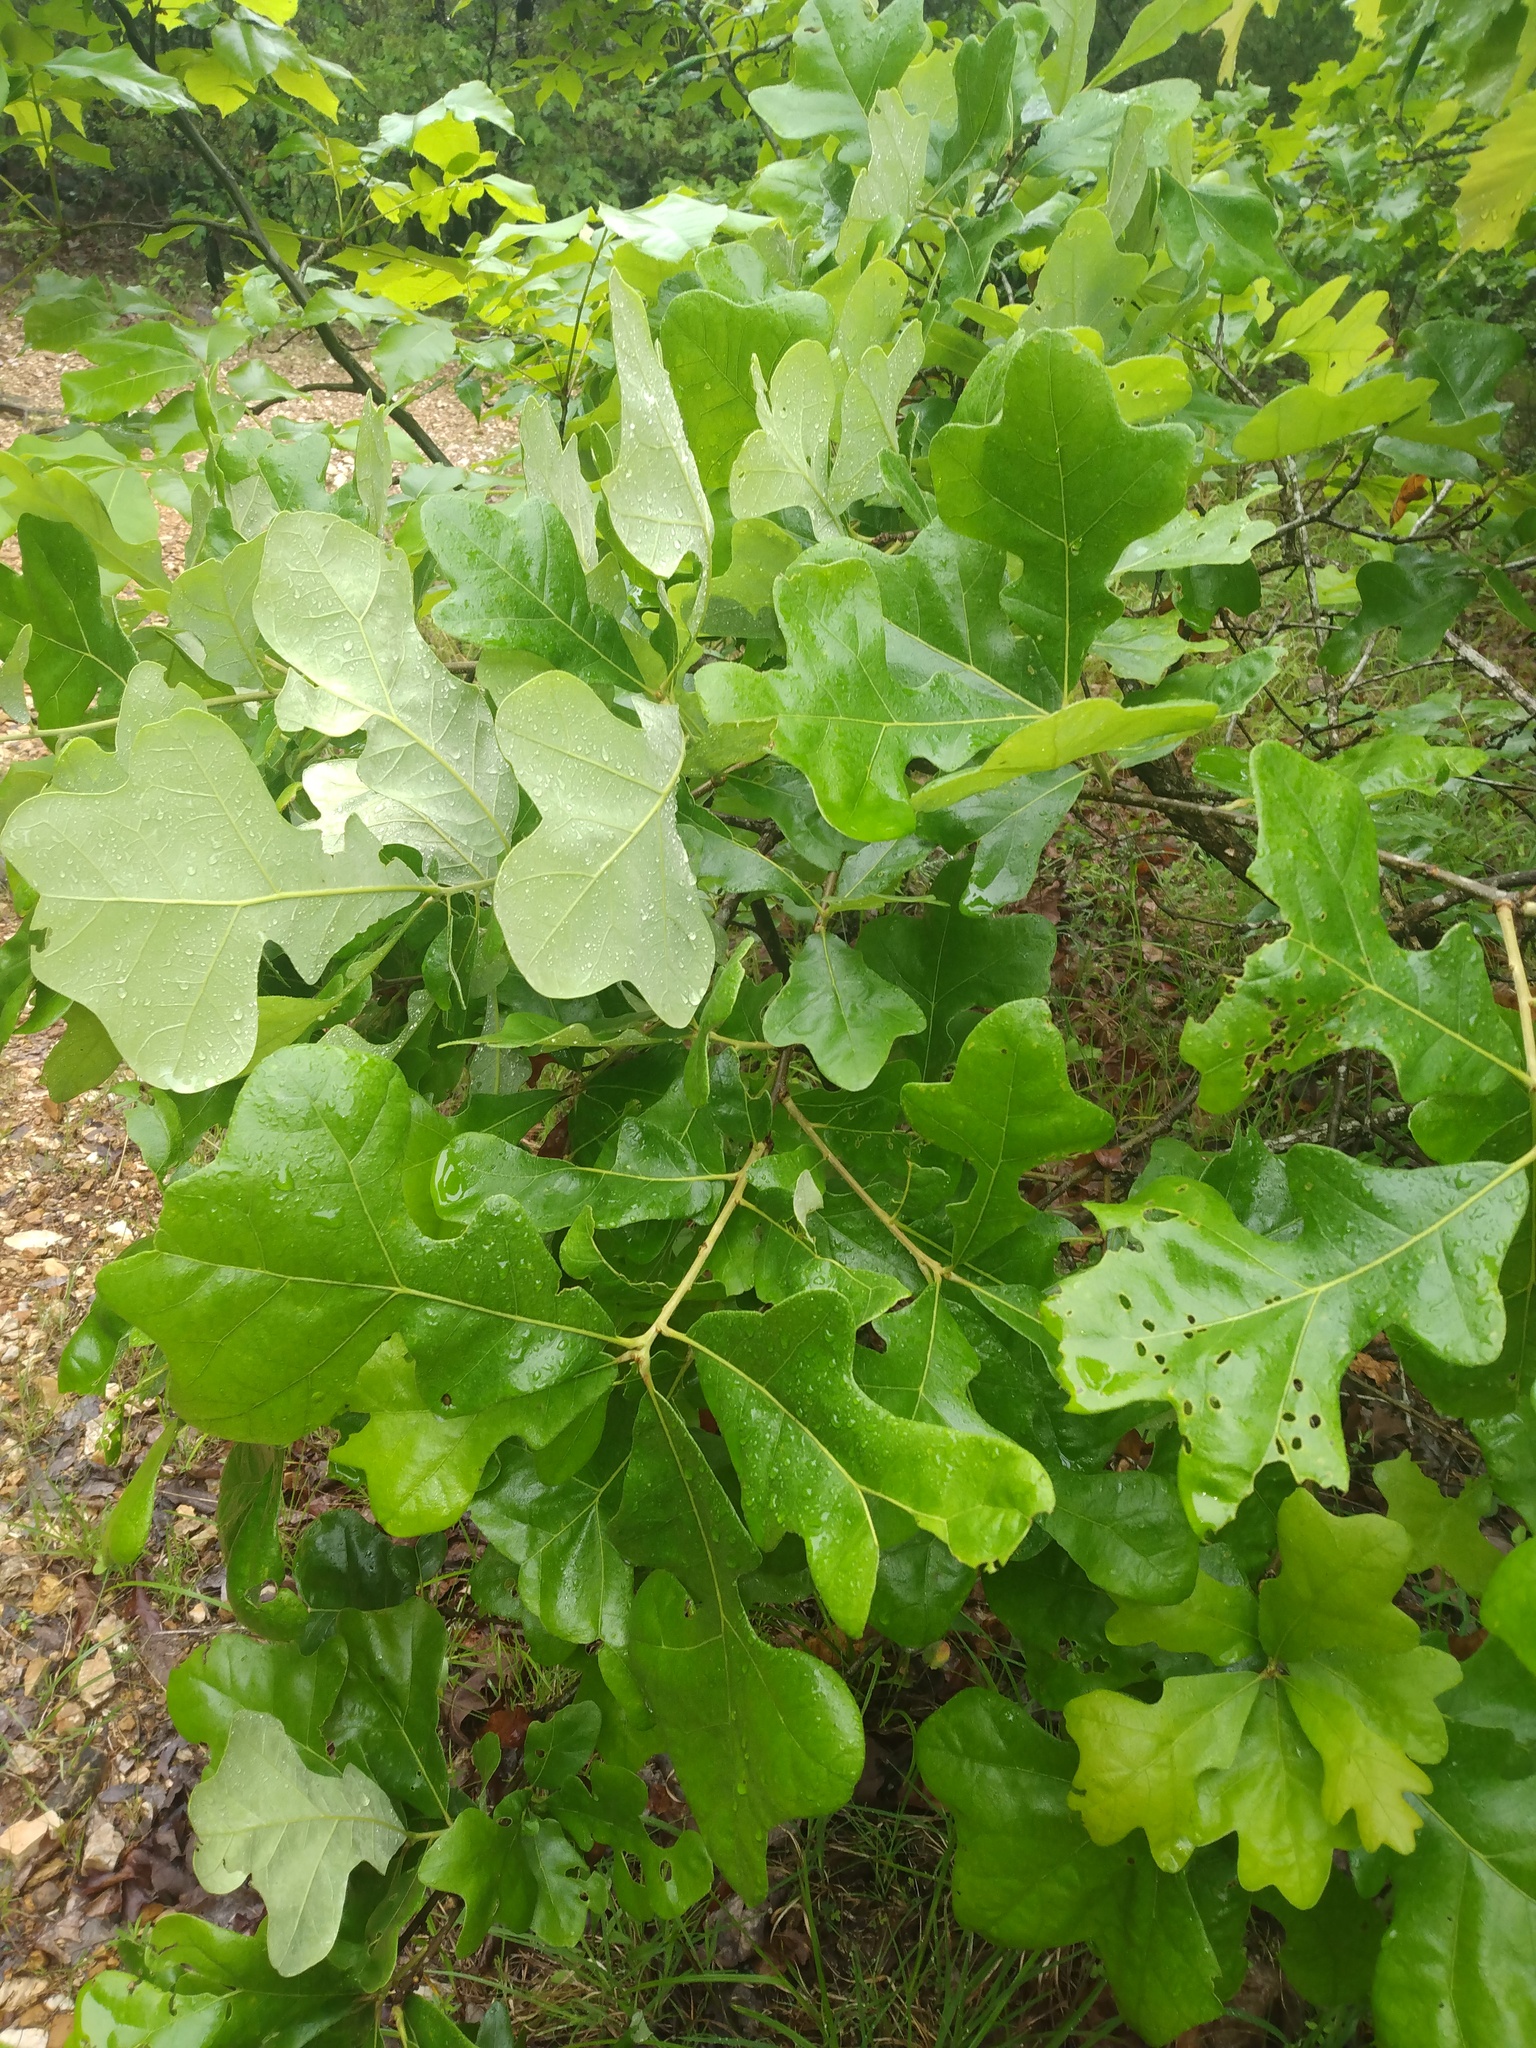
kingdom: Plantae
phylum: Tracheophyta
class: Magnoliopsida
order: Fagales
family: Fagaceae
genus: Quercus
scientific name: Quercus stellata
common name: Post oak
